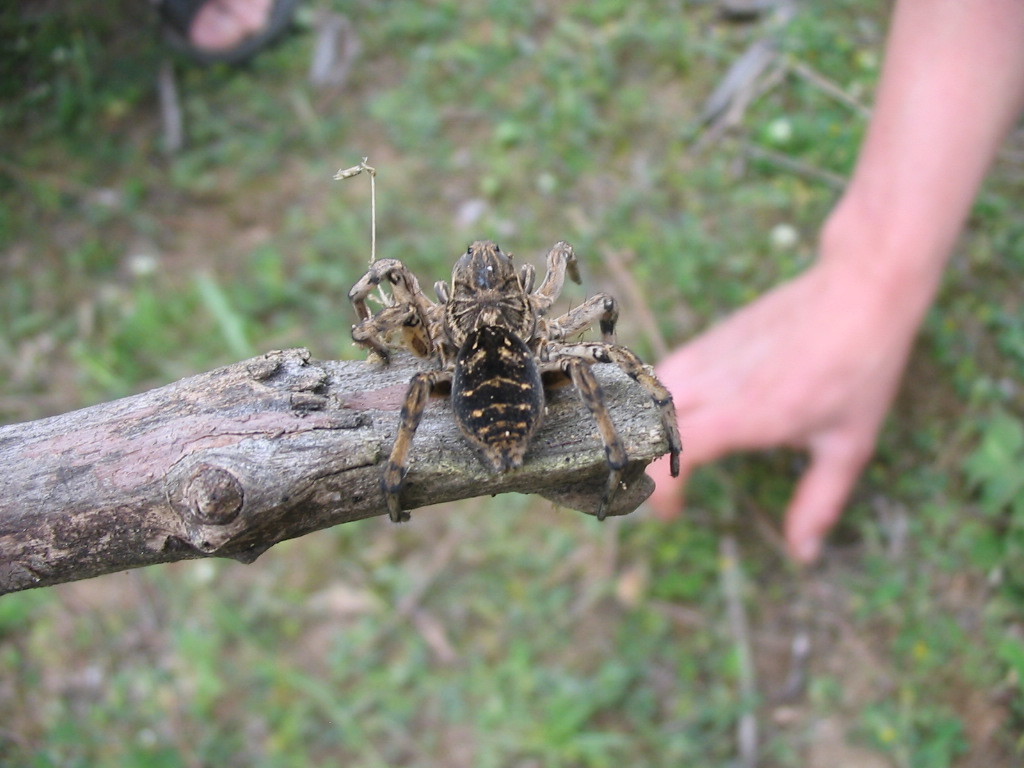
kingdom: Animalia
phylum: Arthropoda
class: Arachnida
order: Araneae
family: Lycosidae
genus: Geolycosa
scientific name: Geolycosa vultuosa
